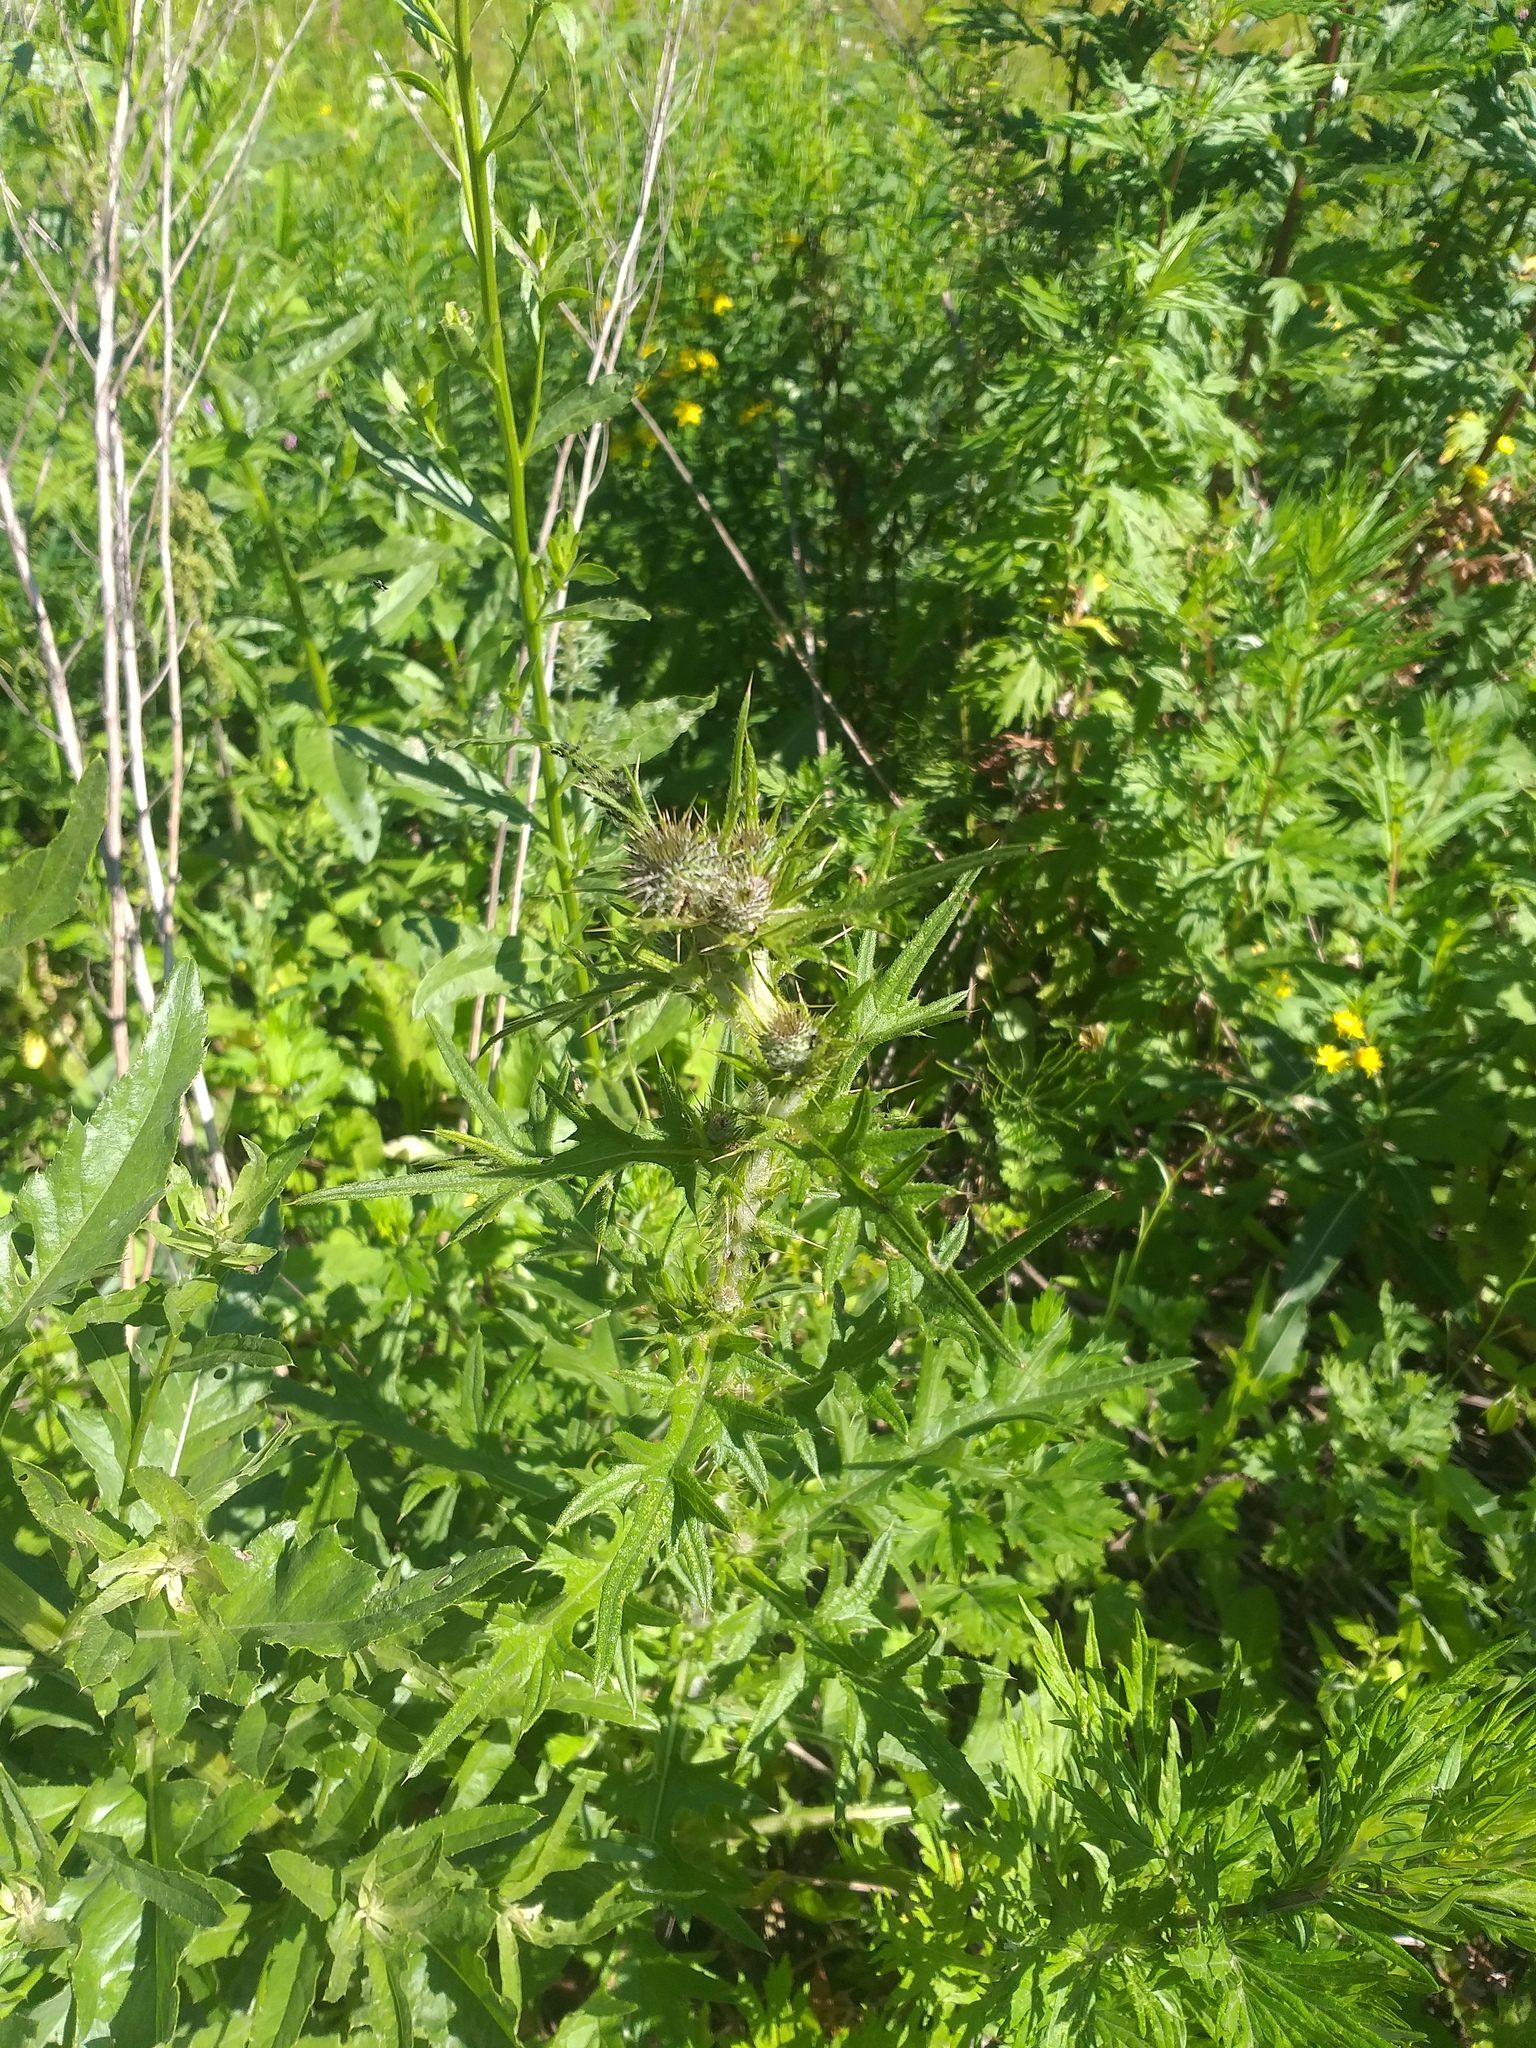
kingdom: Plantae
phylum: Tracheophyta
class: Magnoliopsida
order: Asterales
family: Asteraceae
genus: Cirsium
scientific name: Cirsium vulgare
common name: Bull thistle
